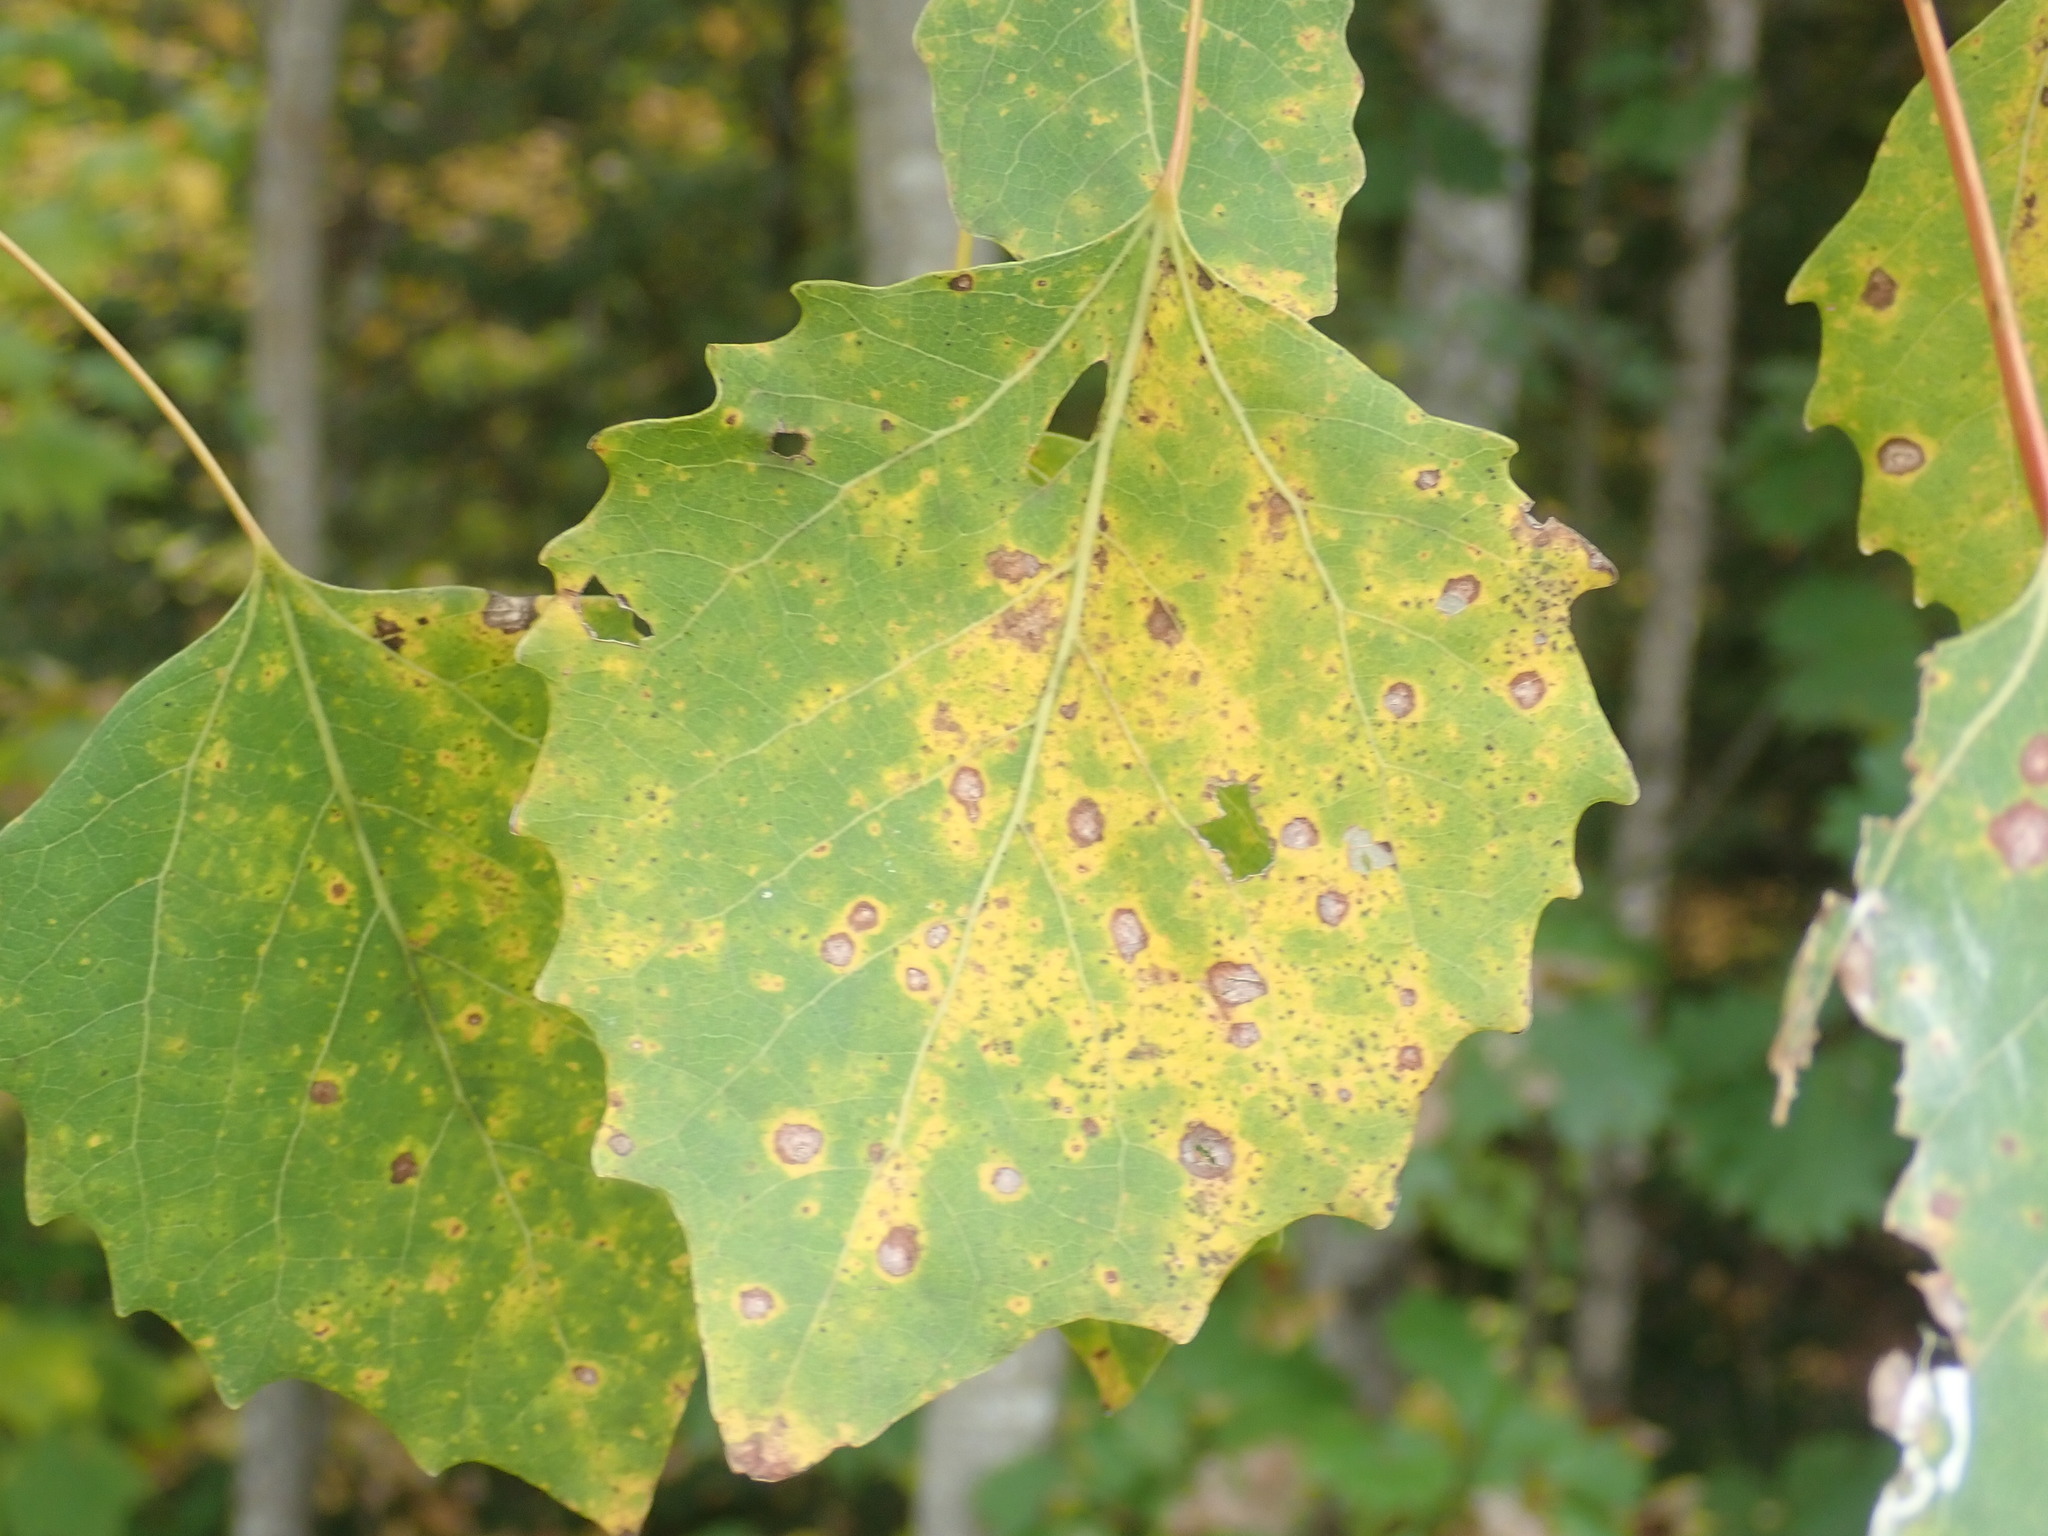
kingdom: Plantae
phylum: Tracheophyta
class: Magnoliopsida
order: Malpighiales
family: Salicaceae
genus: Populus
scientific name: Populus grandidentata
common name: Bigtooth aspen
